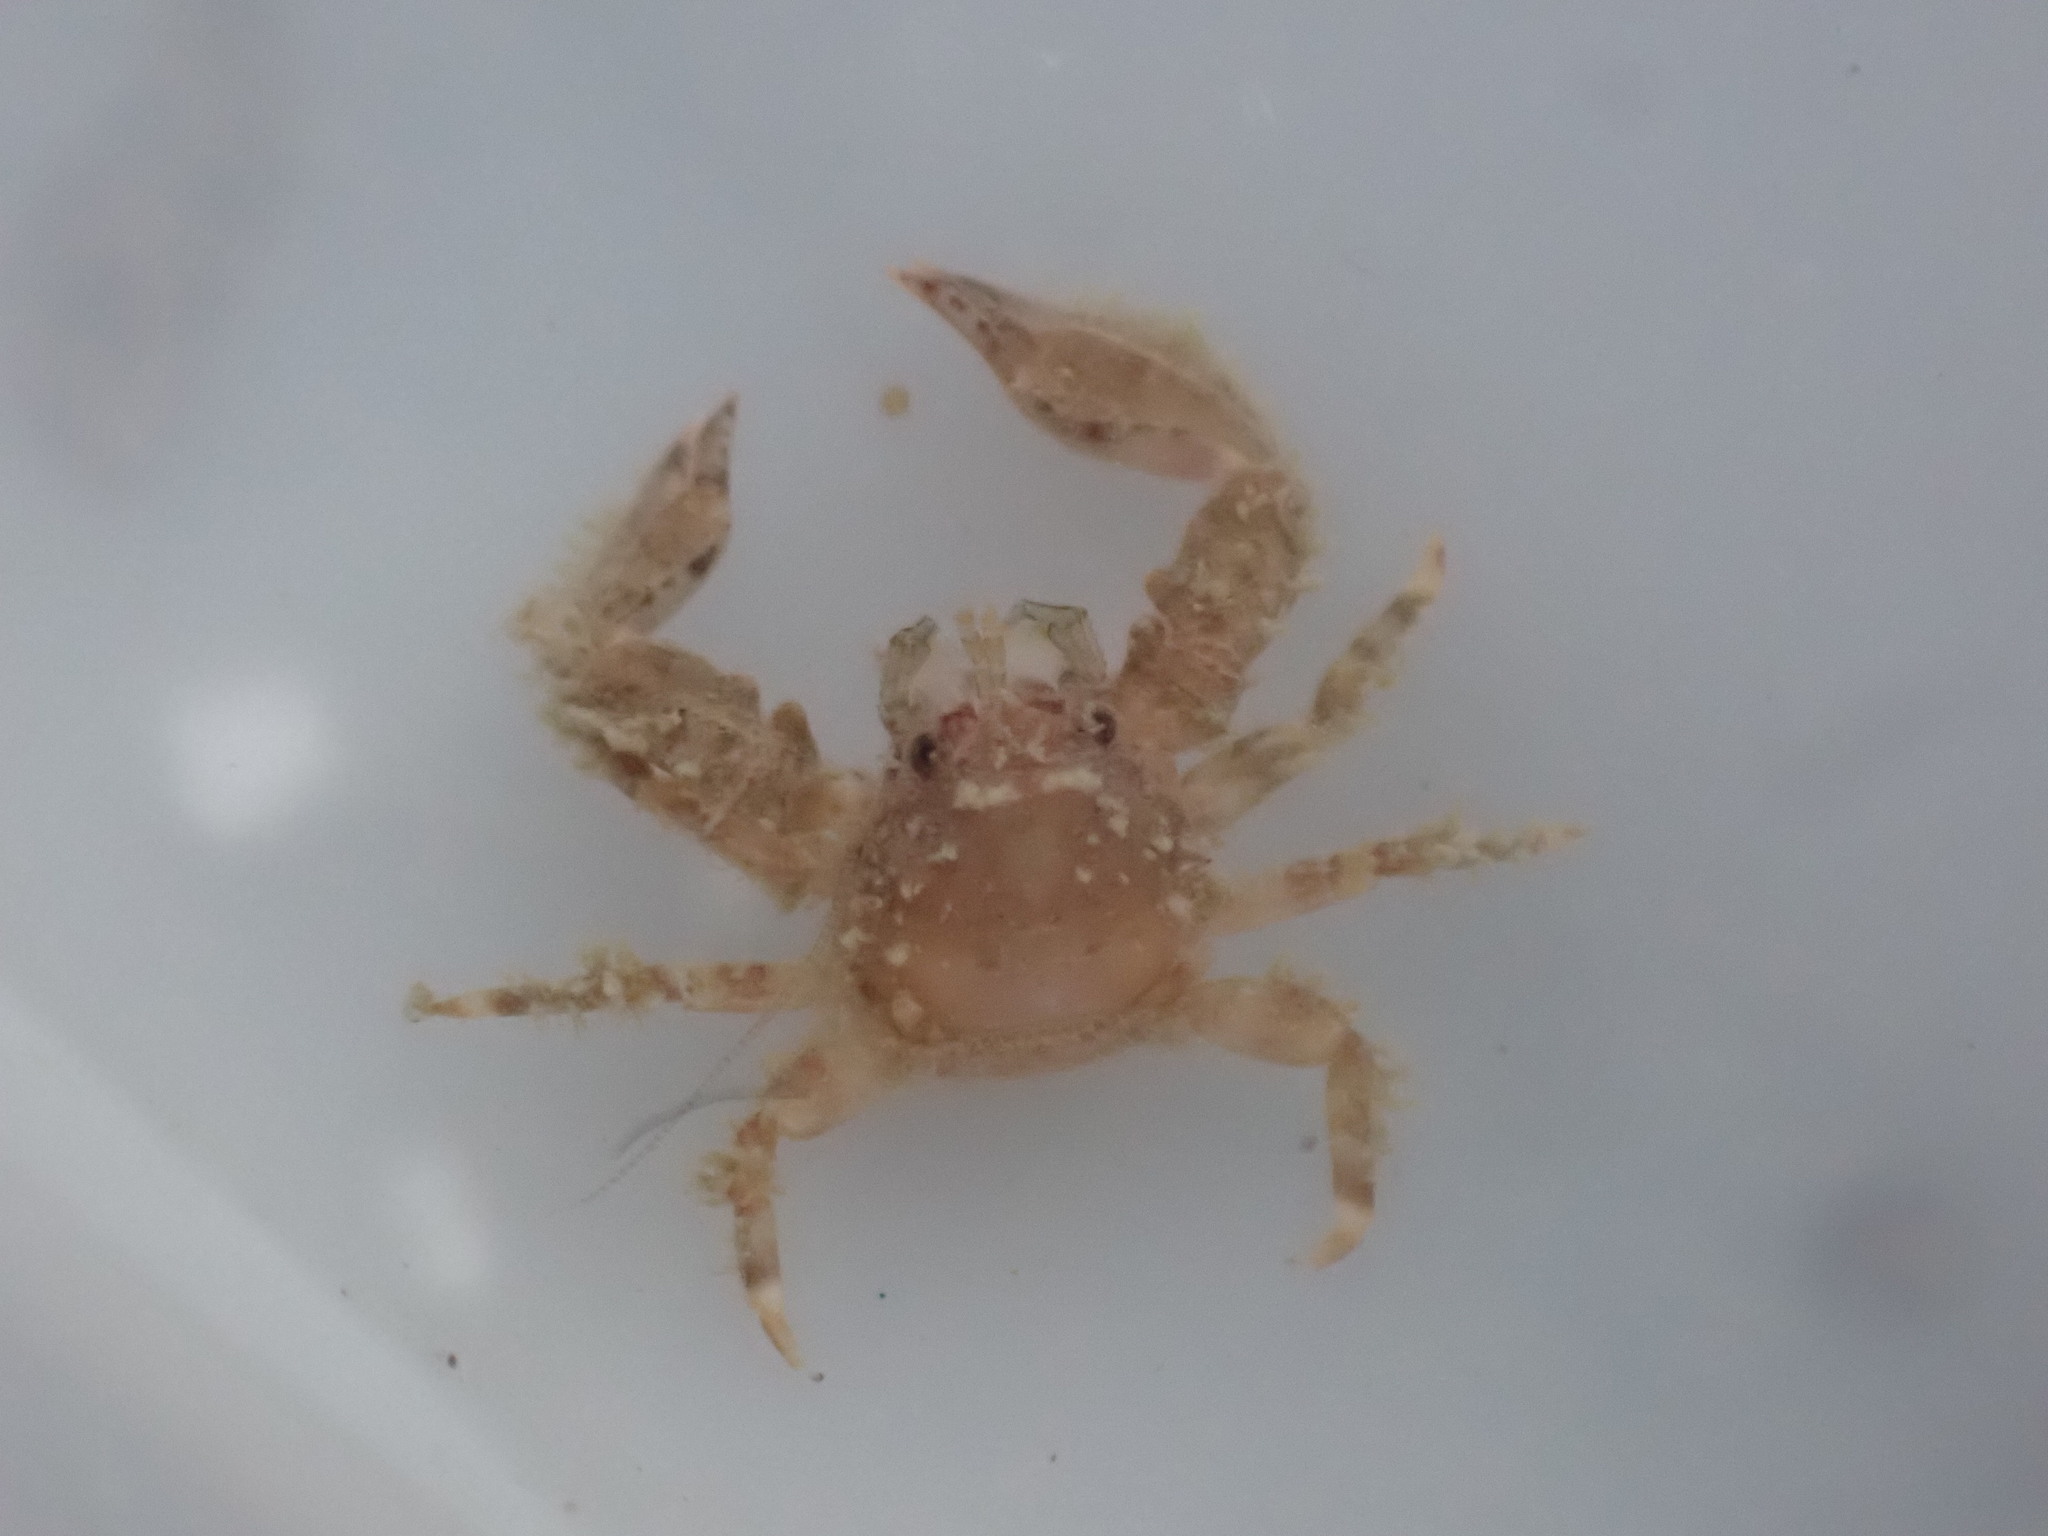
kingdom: Animalia
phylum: Arthropoda
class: Malacostraca
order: Decapoda
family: Porcellanidae
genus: Petrolisthes
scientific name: Petrolisthes novaezelandiae
